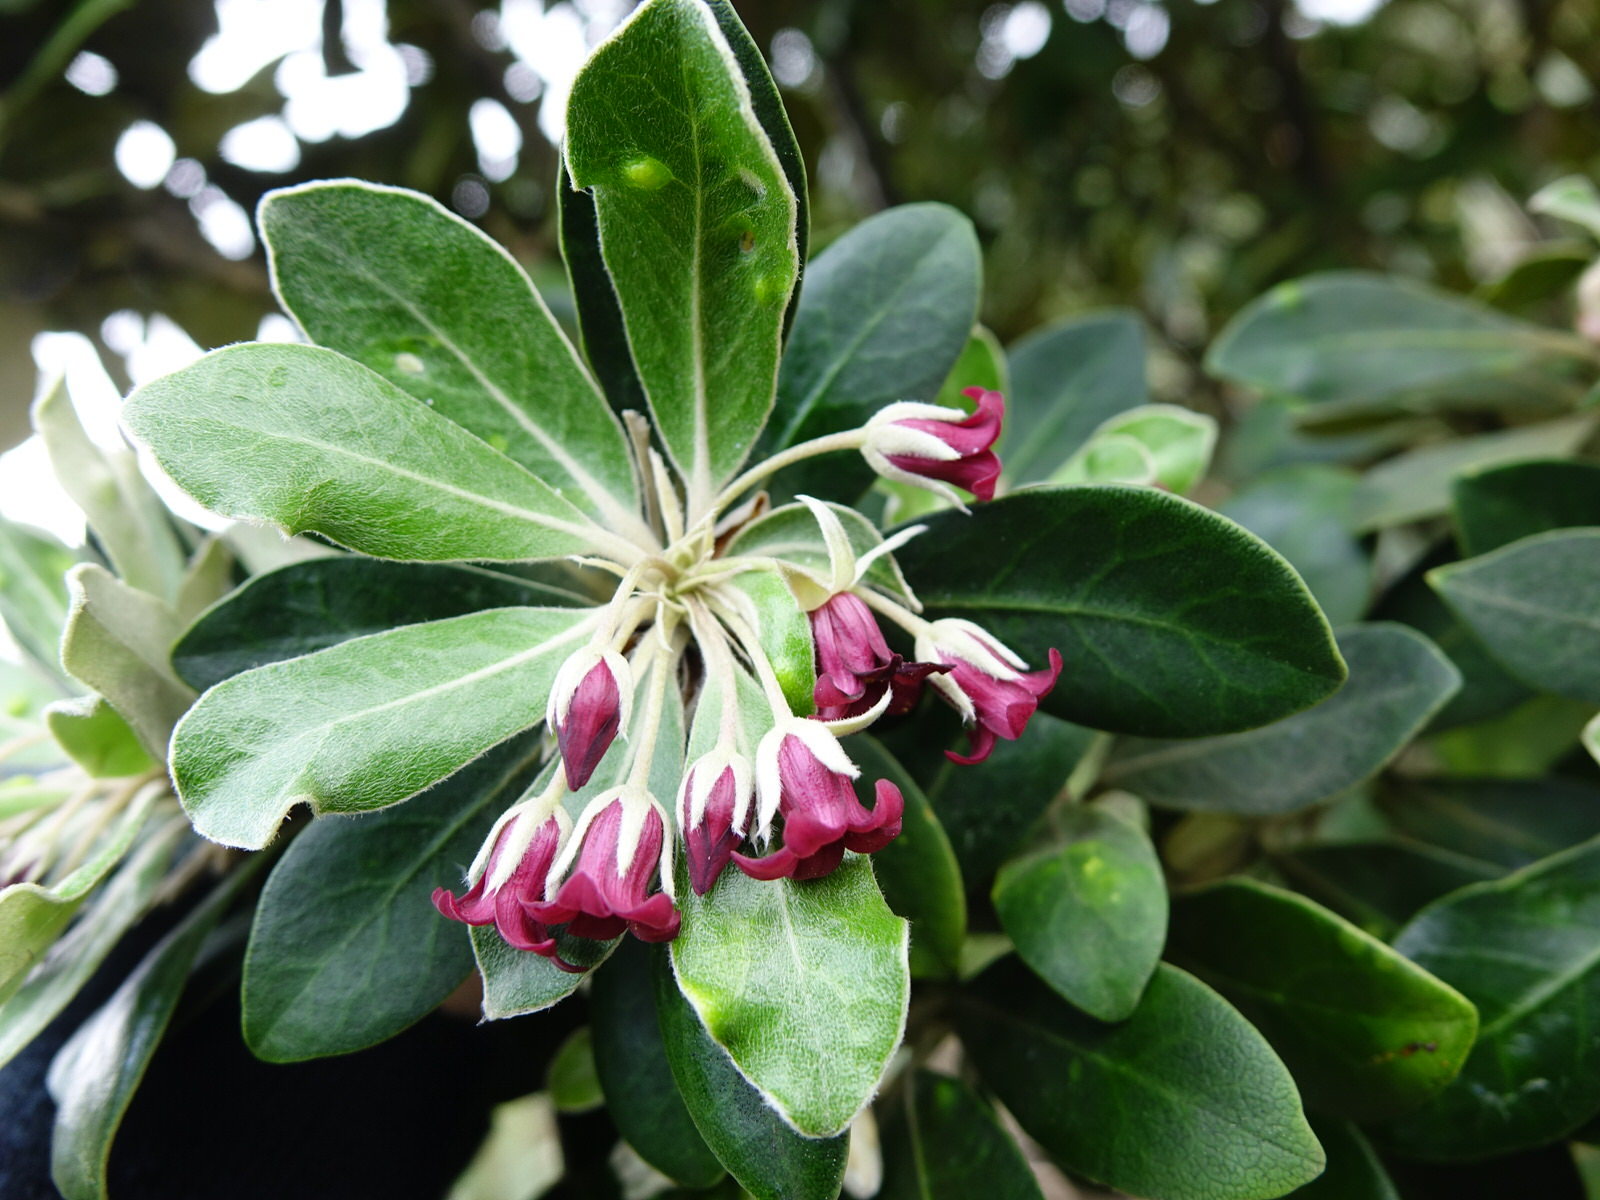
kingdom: Plantae
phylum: Tracheophyta
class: Magnoliopsida
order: Apiales
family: Pittosporaceae
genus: Pittosporum
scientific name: Pittosporum crassifolium
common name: Karo
